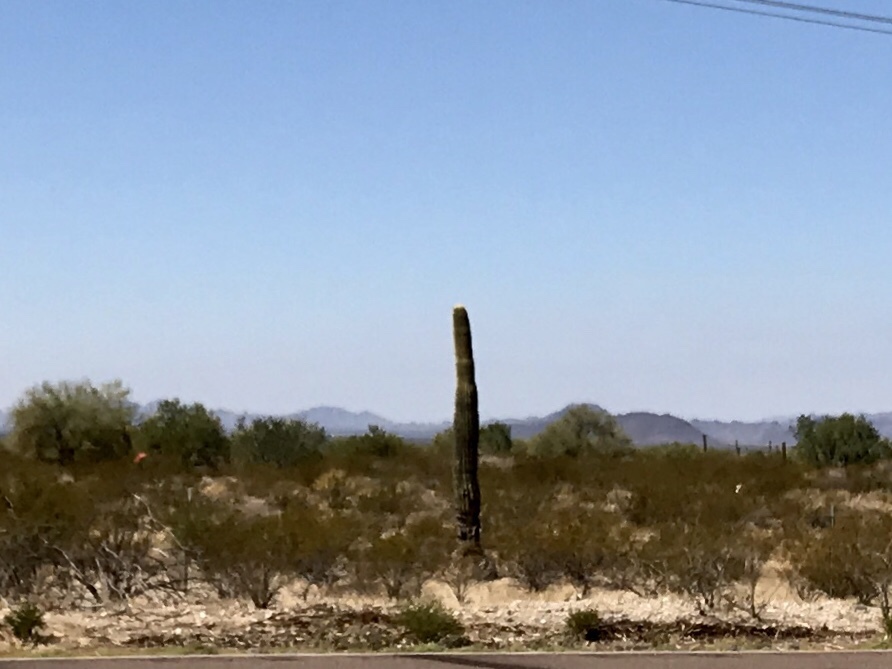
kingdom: Plantae
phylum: Tracheophyta
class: Magnoliopsida
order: Caryophyllales
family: Cactaceae
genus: Carnegiea
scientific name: Carnegiea gigantea
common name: Saguaro
